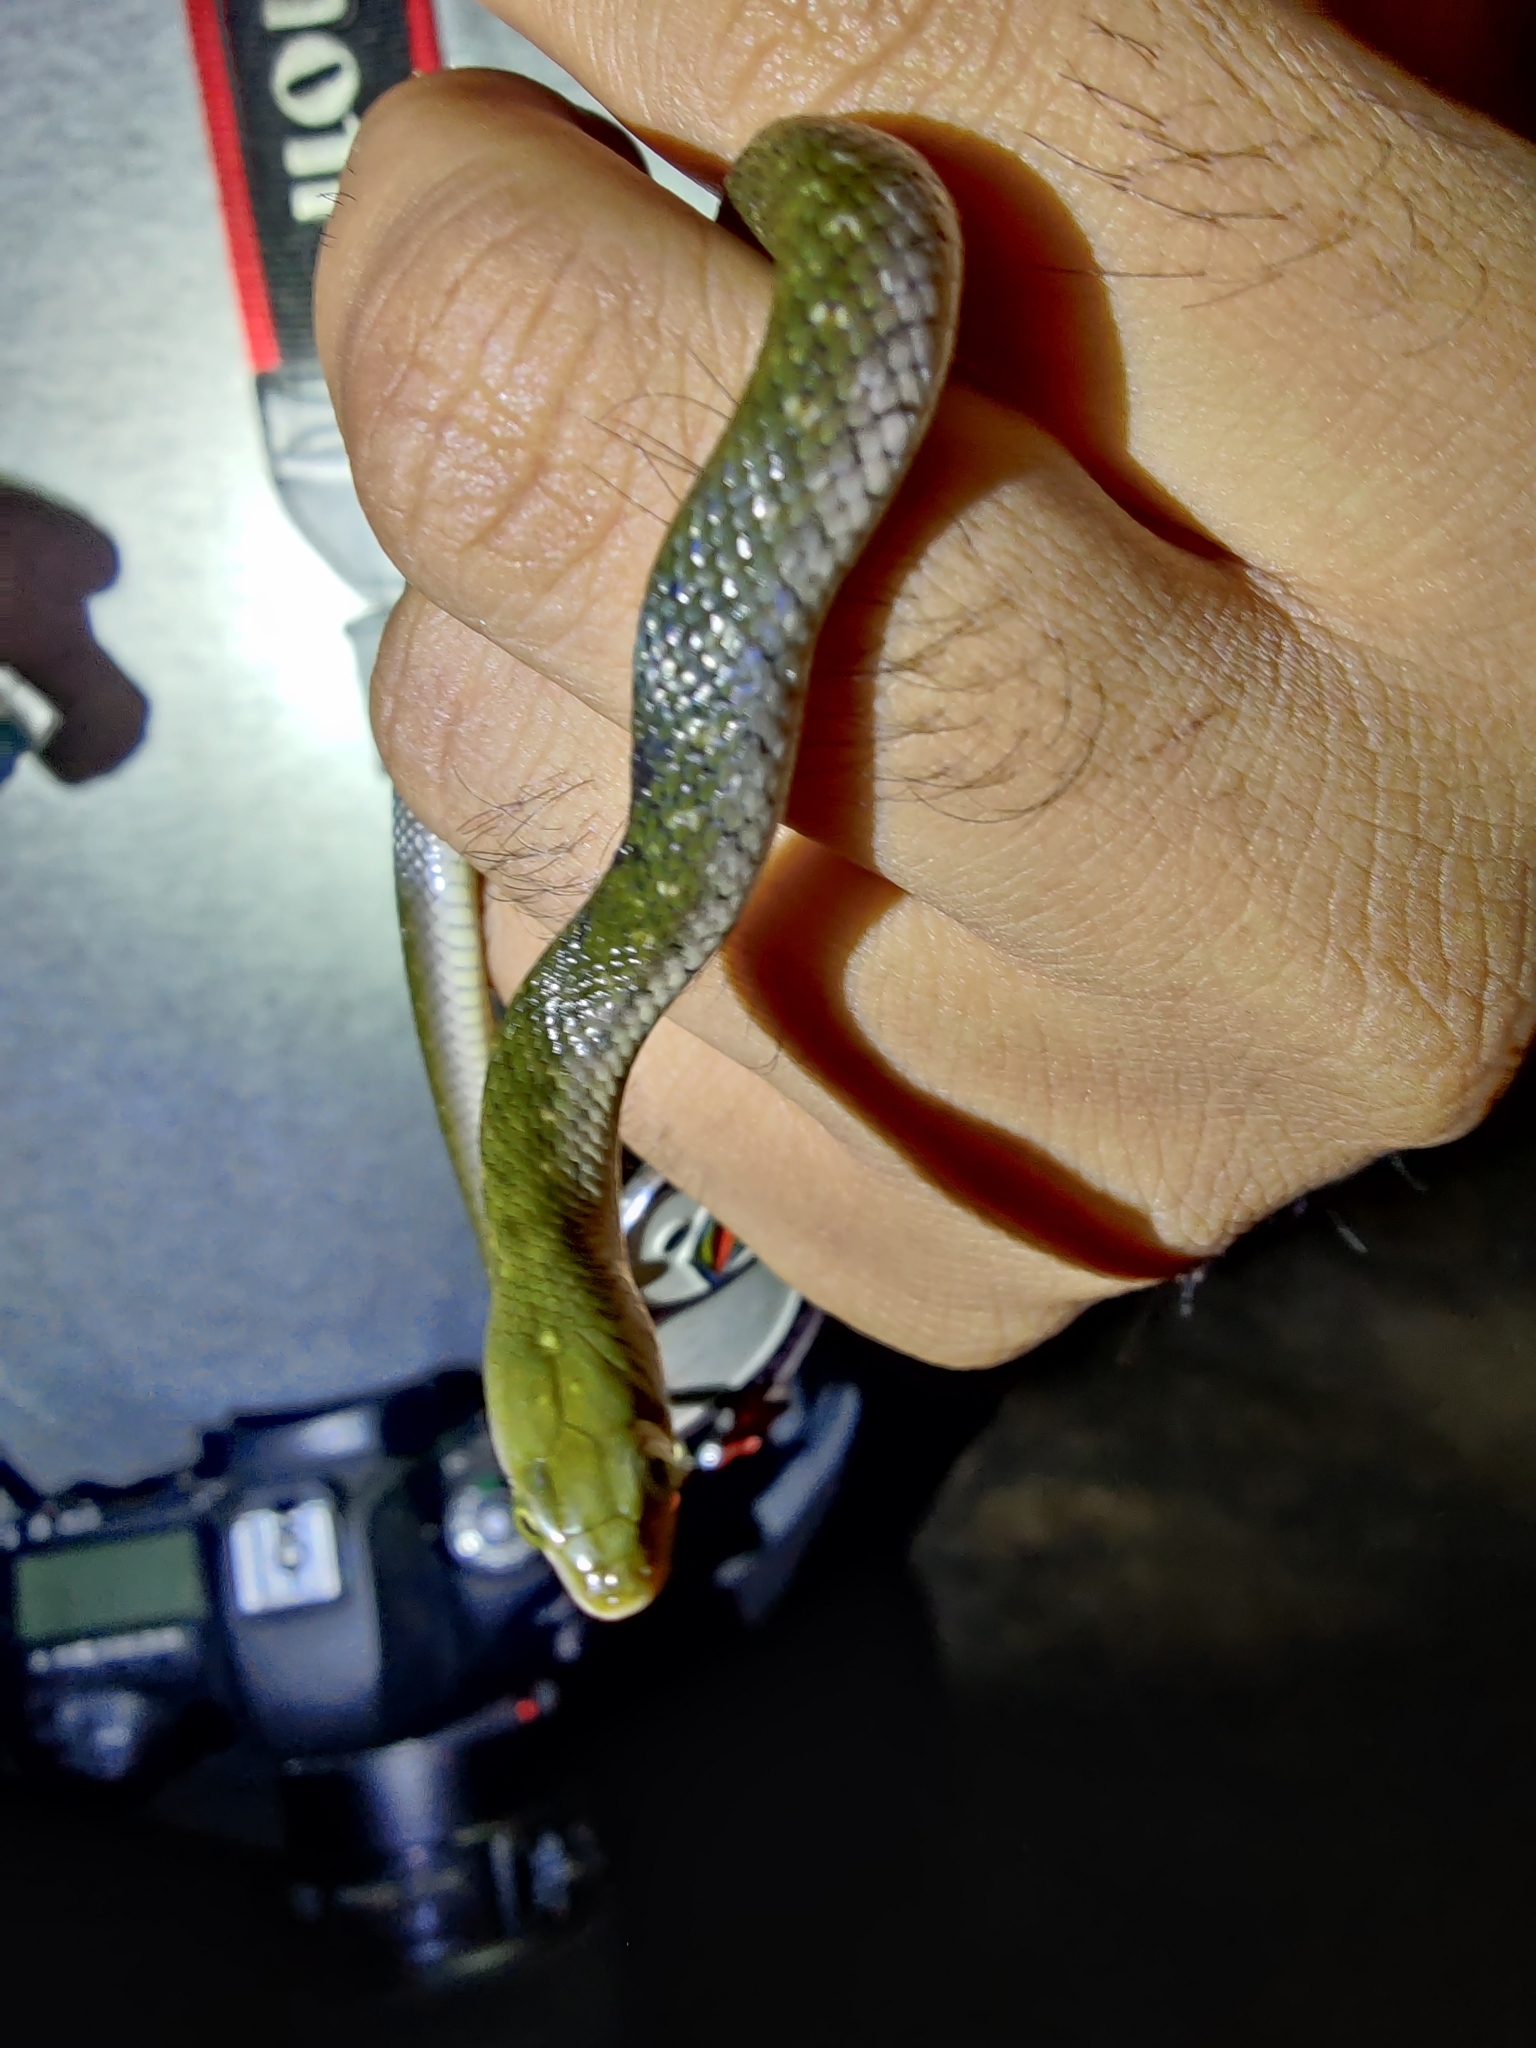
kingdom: Animalia
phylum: Chordata
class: Squamata
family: Colubridae
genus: Fowlea
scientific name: Fowlea piscator
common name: Asiatic water snake
